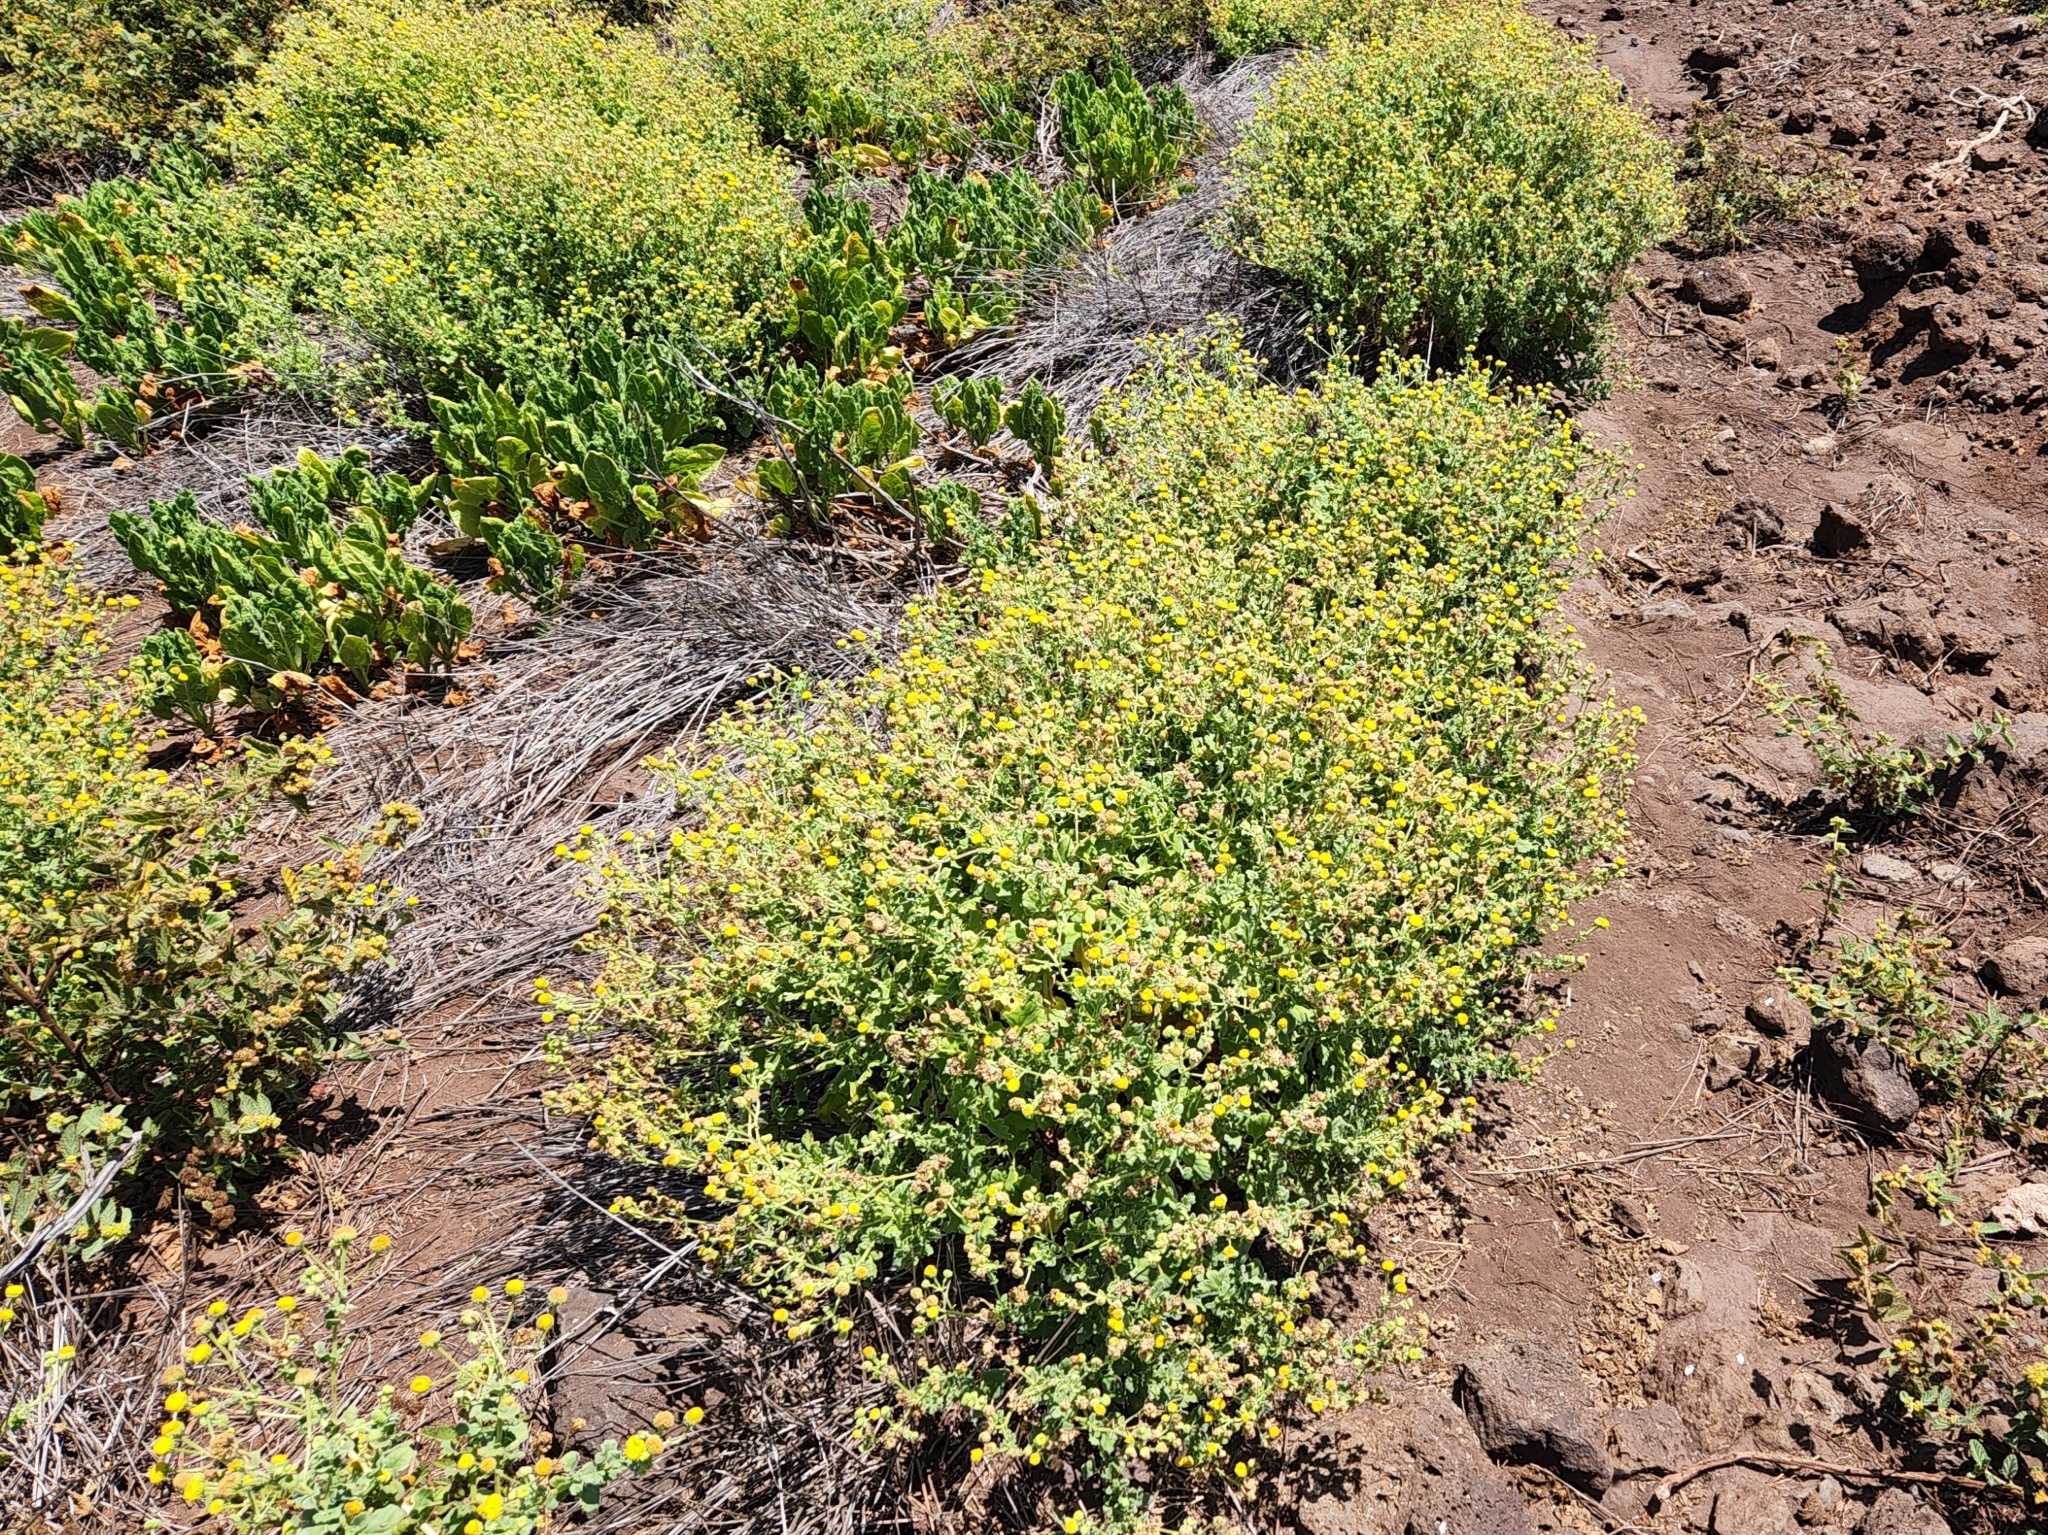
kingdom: Plantae
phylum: Tracheophyta
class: Magnoliopsida
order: Asterales
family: Asteraceae
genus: Perityle
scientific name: Perityle socorrosensis
